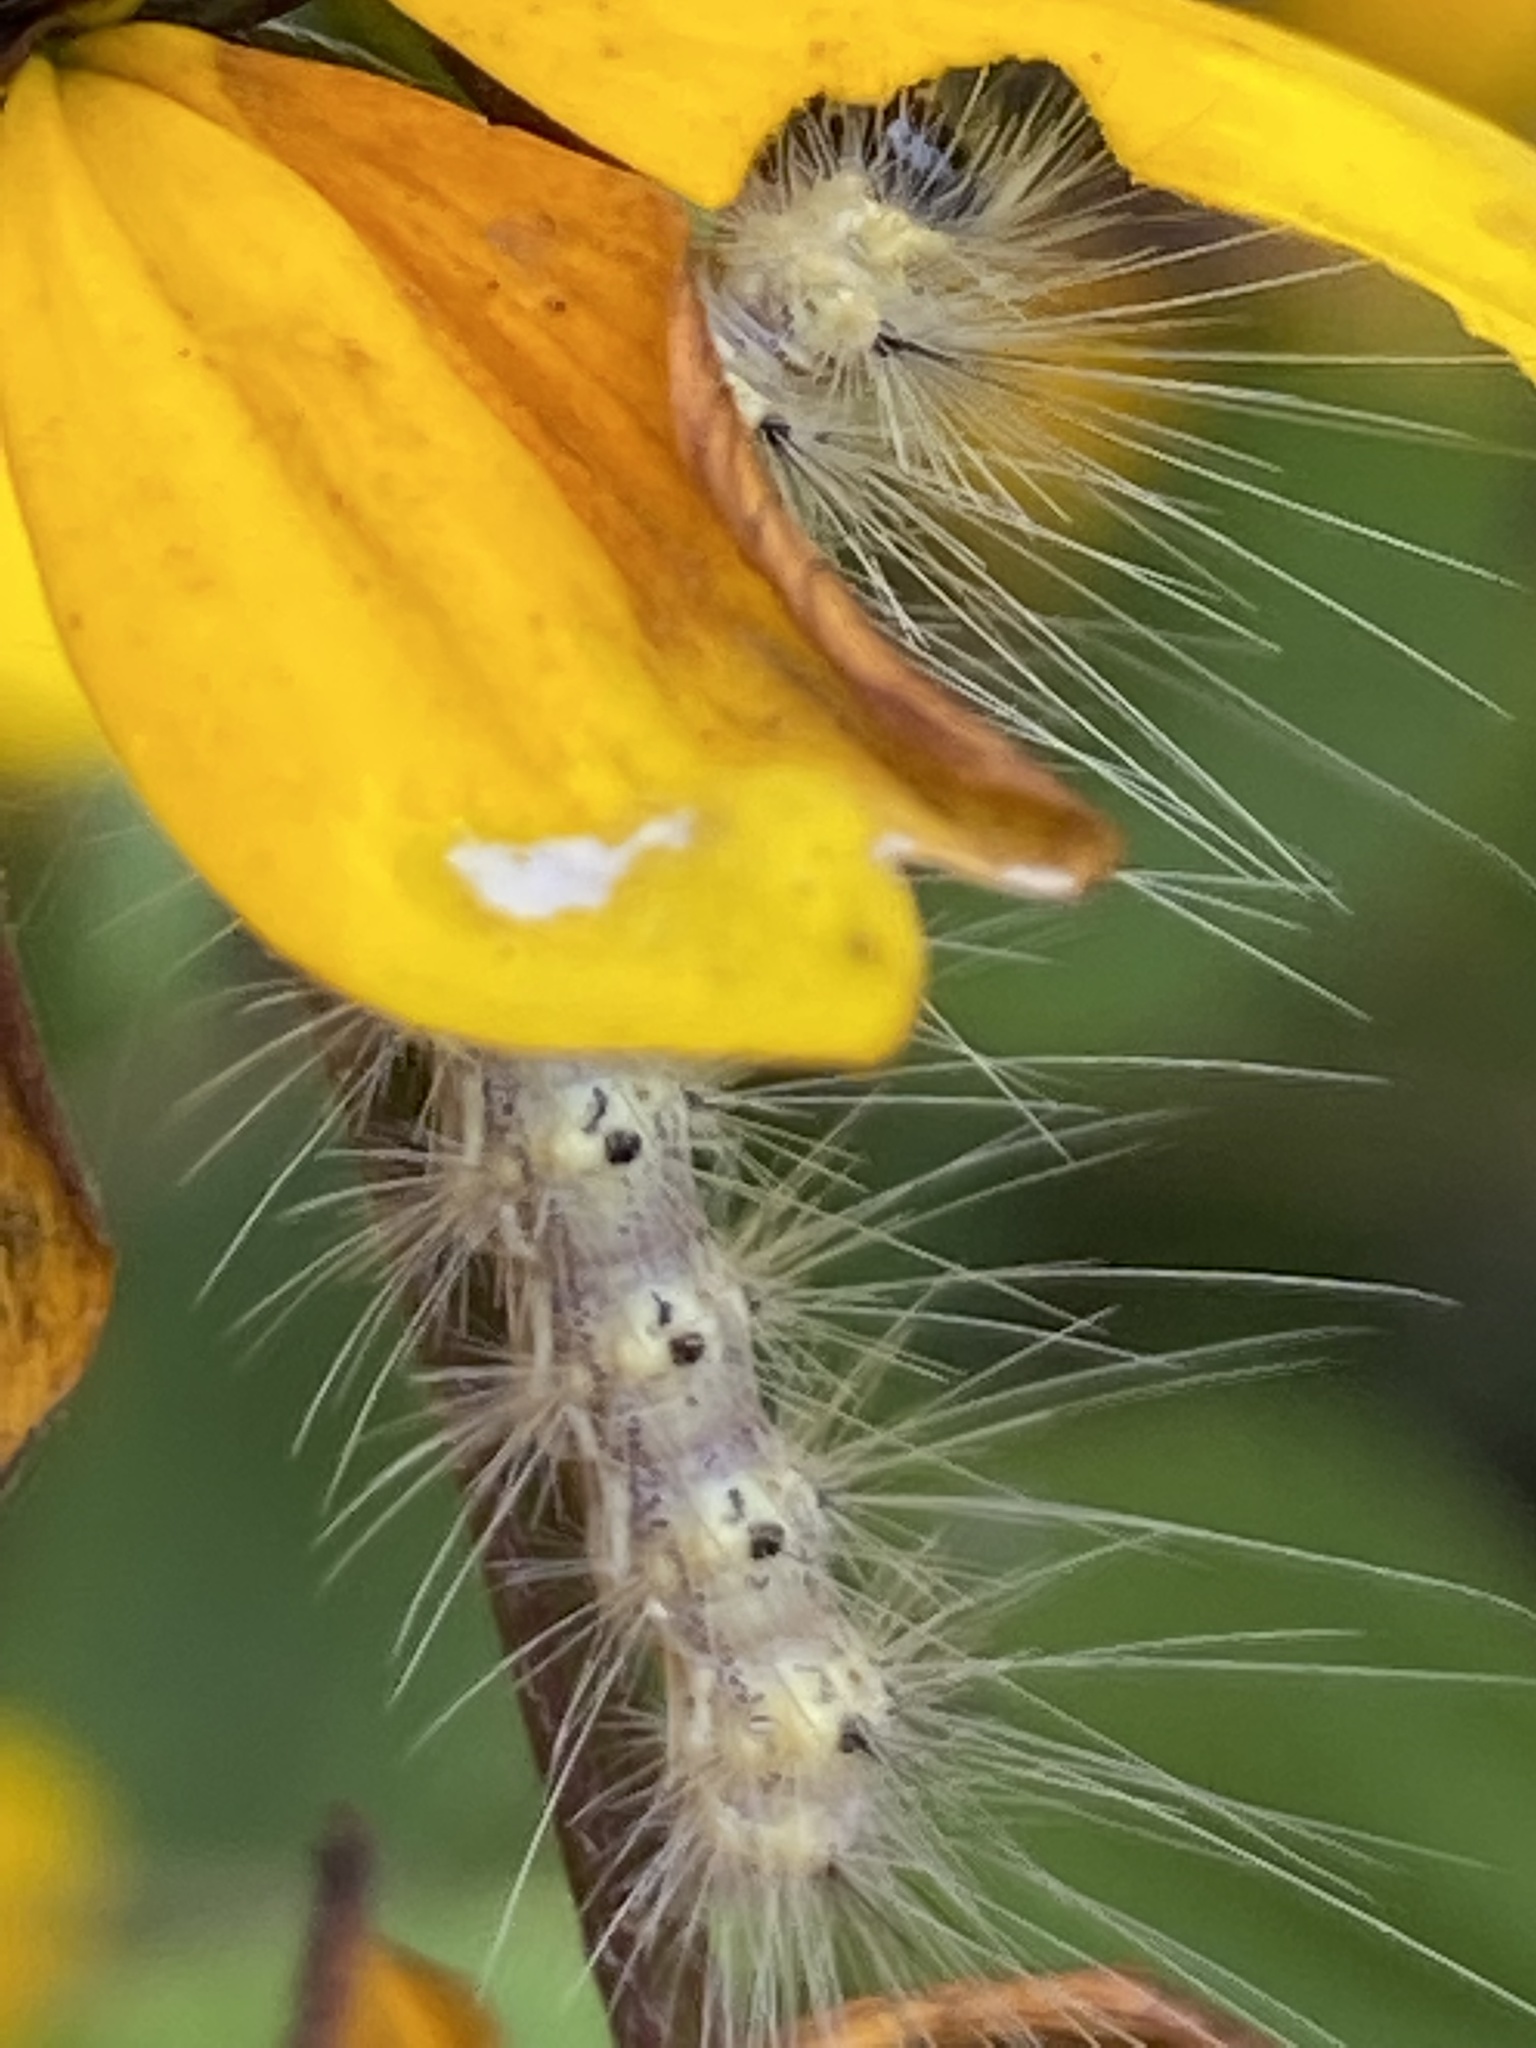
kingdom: Animalia
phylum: Arthropoda
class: Insecta
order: Lepidoptera
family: Erebidae
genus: Hyphantria
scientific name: Hyphantria cunea
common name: American white moth
